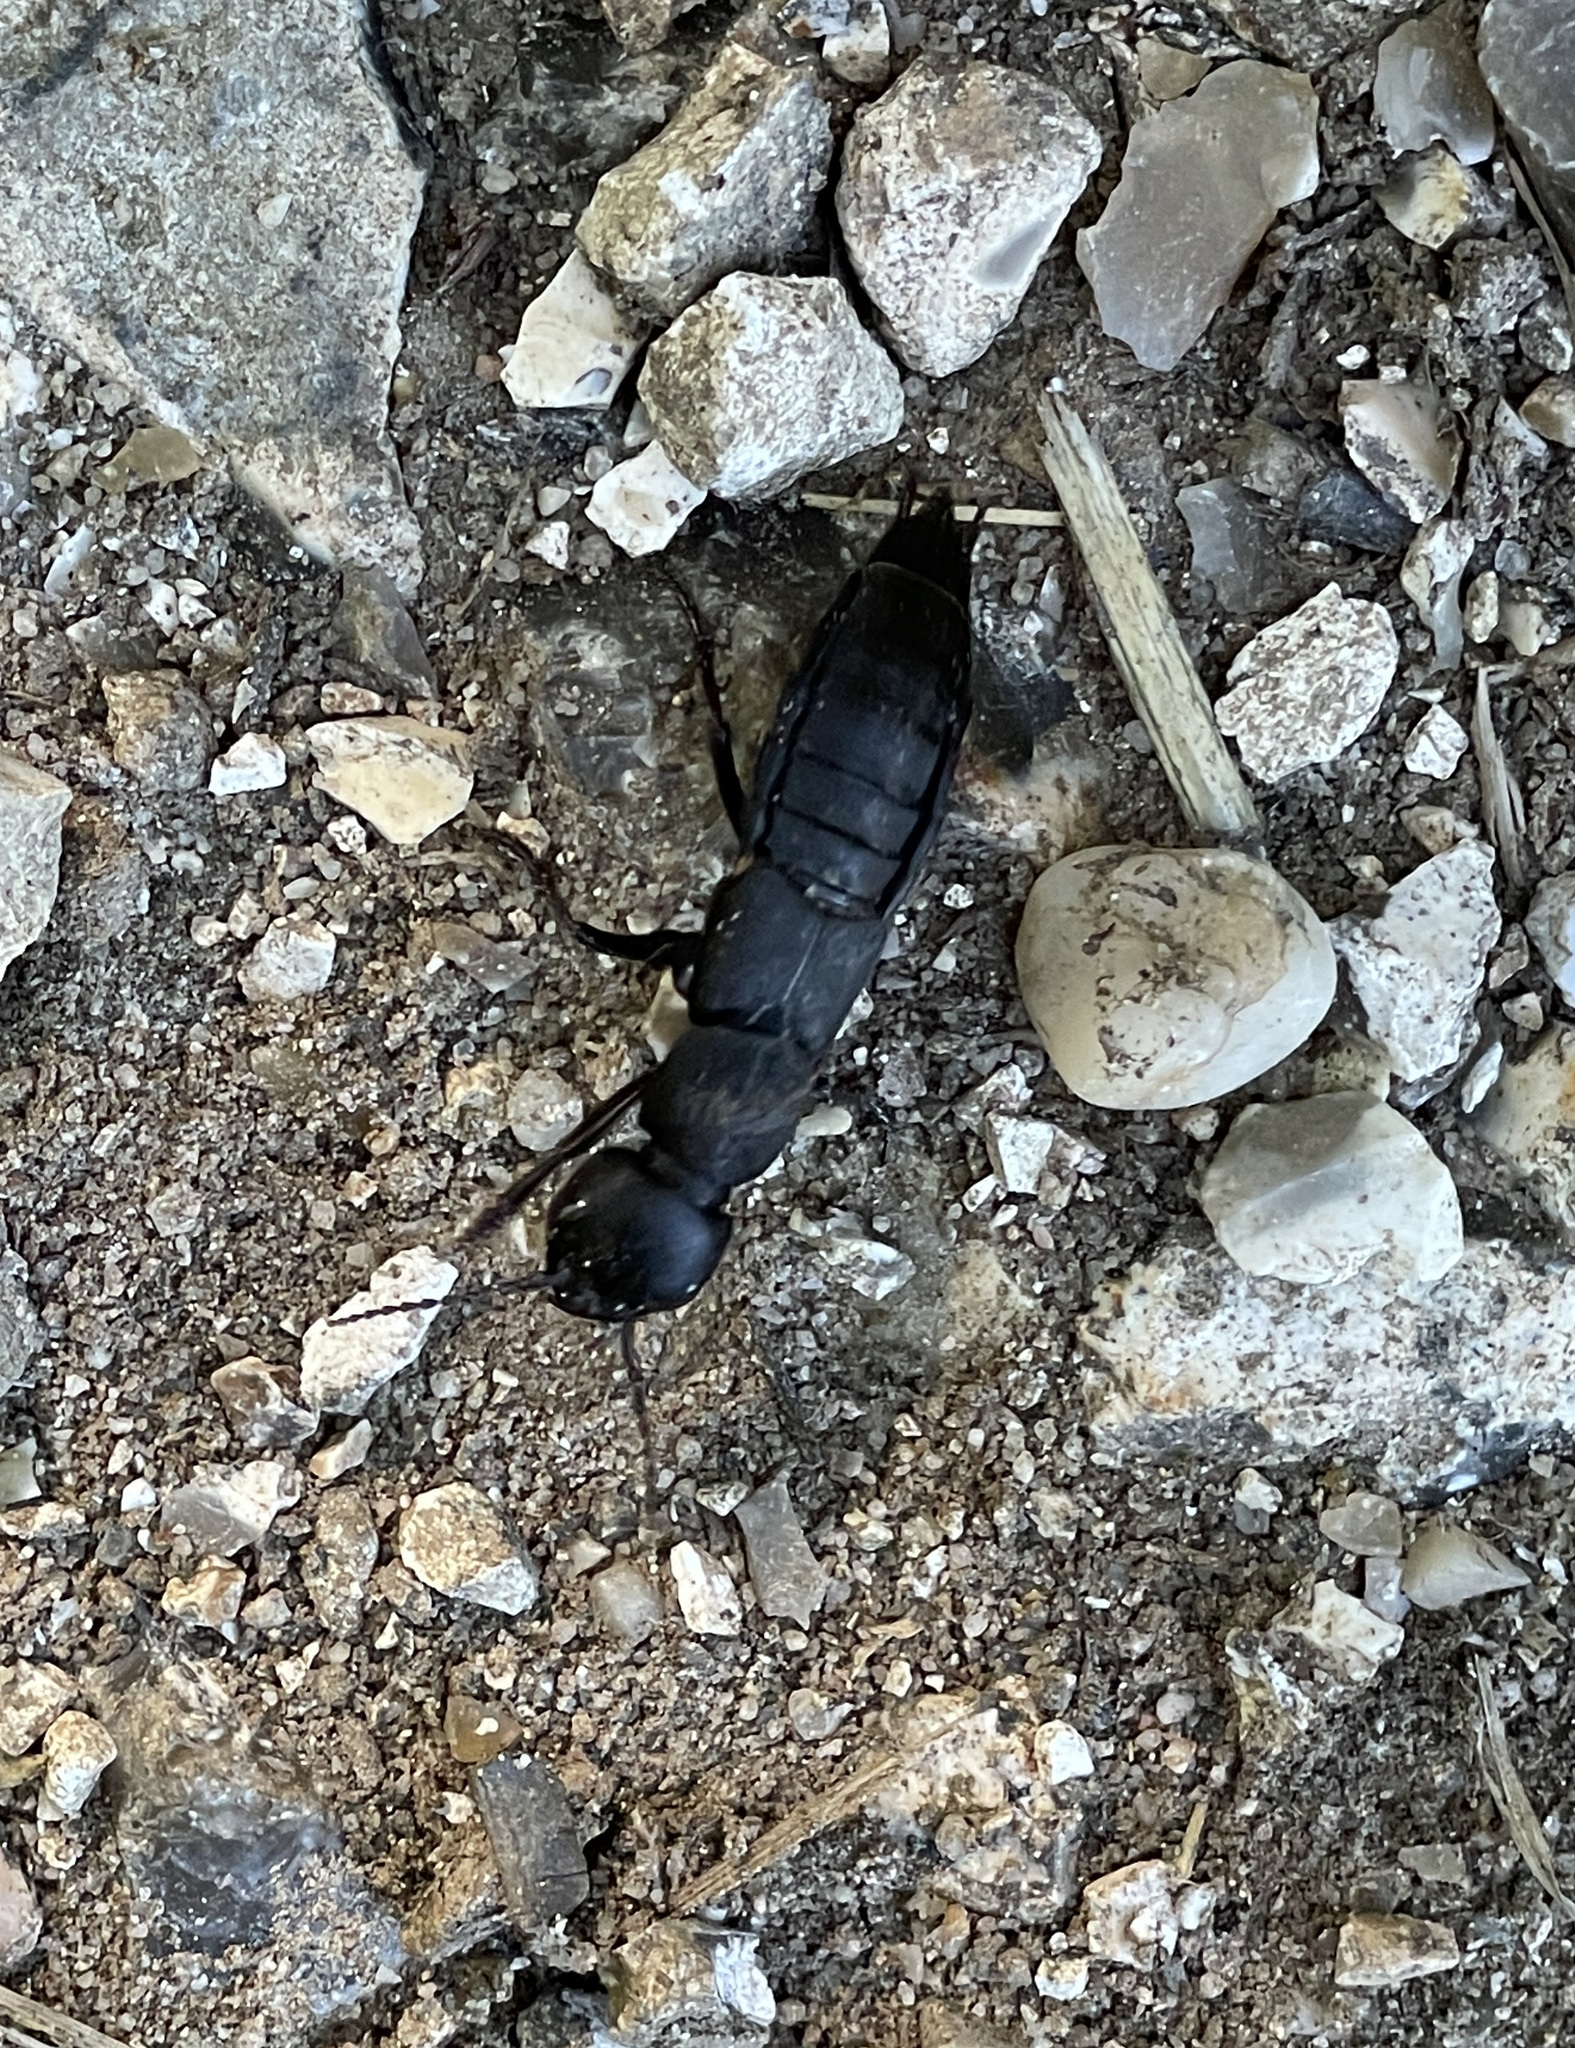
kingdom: Animalia
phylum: Arthropoda
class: Insecta
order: Coleoptera
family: Staphylinidae
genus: Ocypus
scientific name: Ocypus olens
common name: Devil's coach-horse
